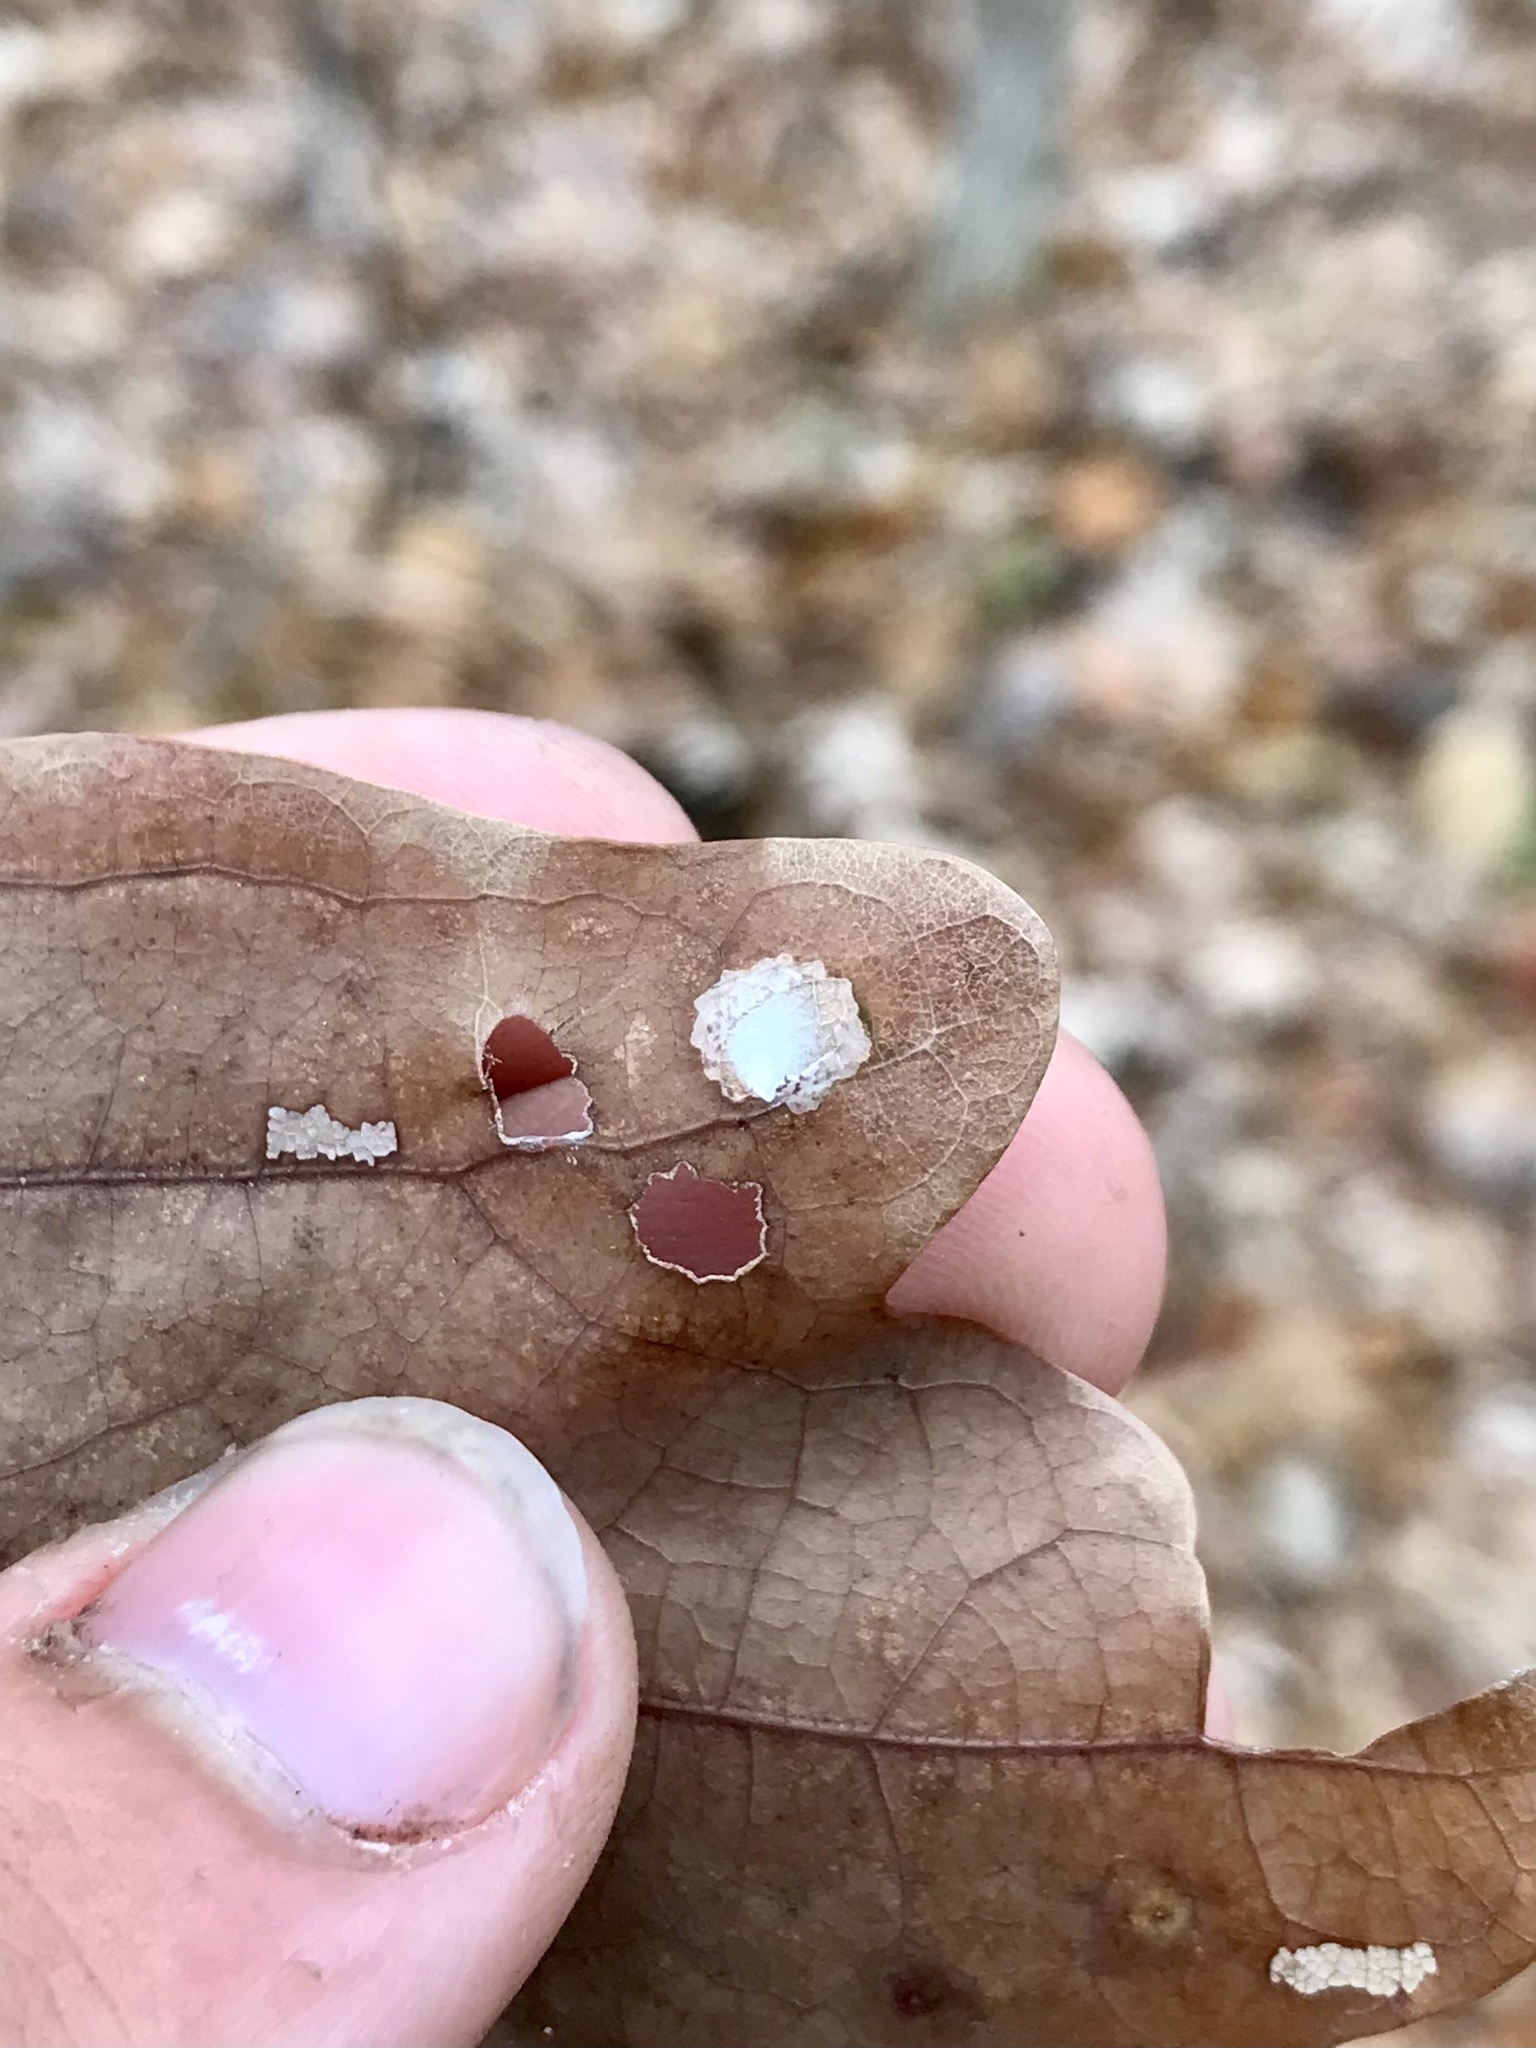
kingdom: Animalia
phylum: Arthropoda
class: Insecta
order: Lepidoptera
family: Tischeriidae
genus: Tischeria
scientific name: Tischeria quercitella
